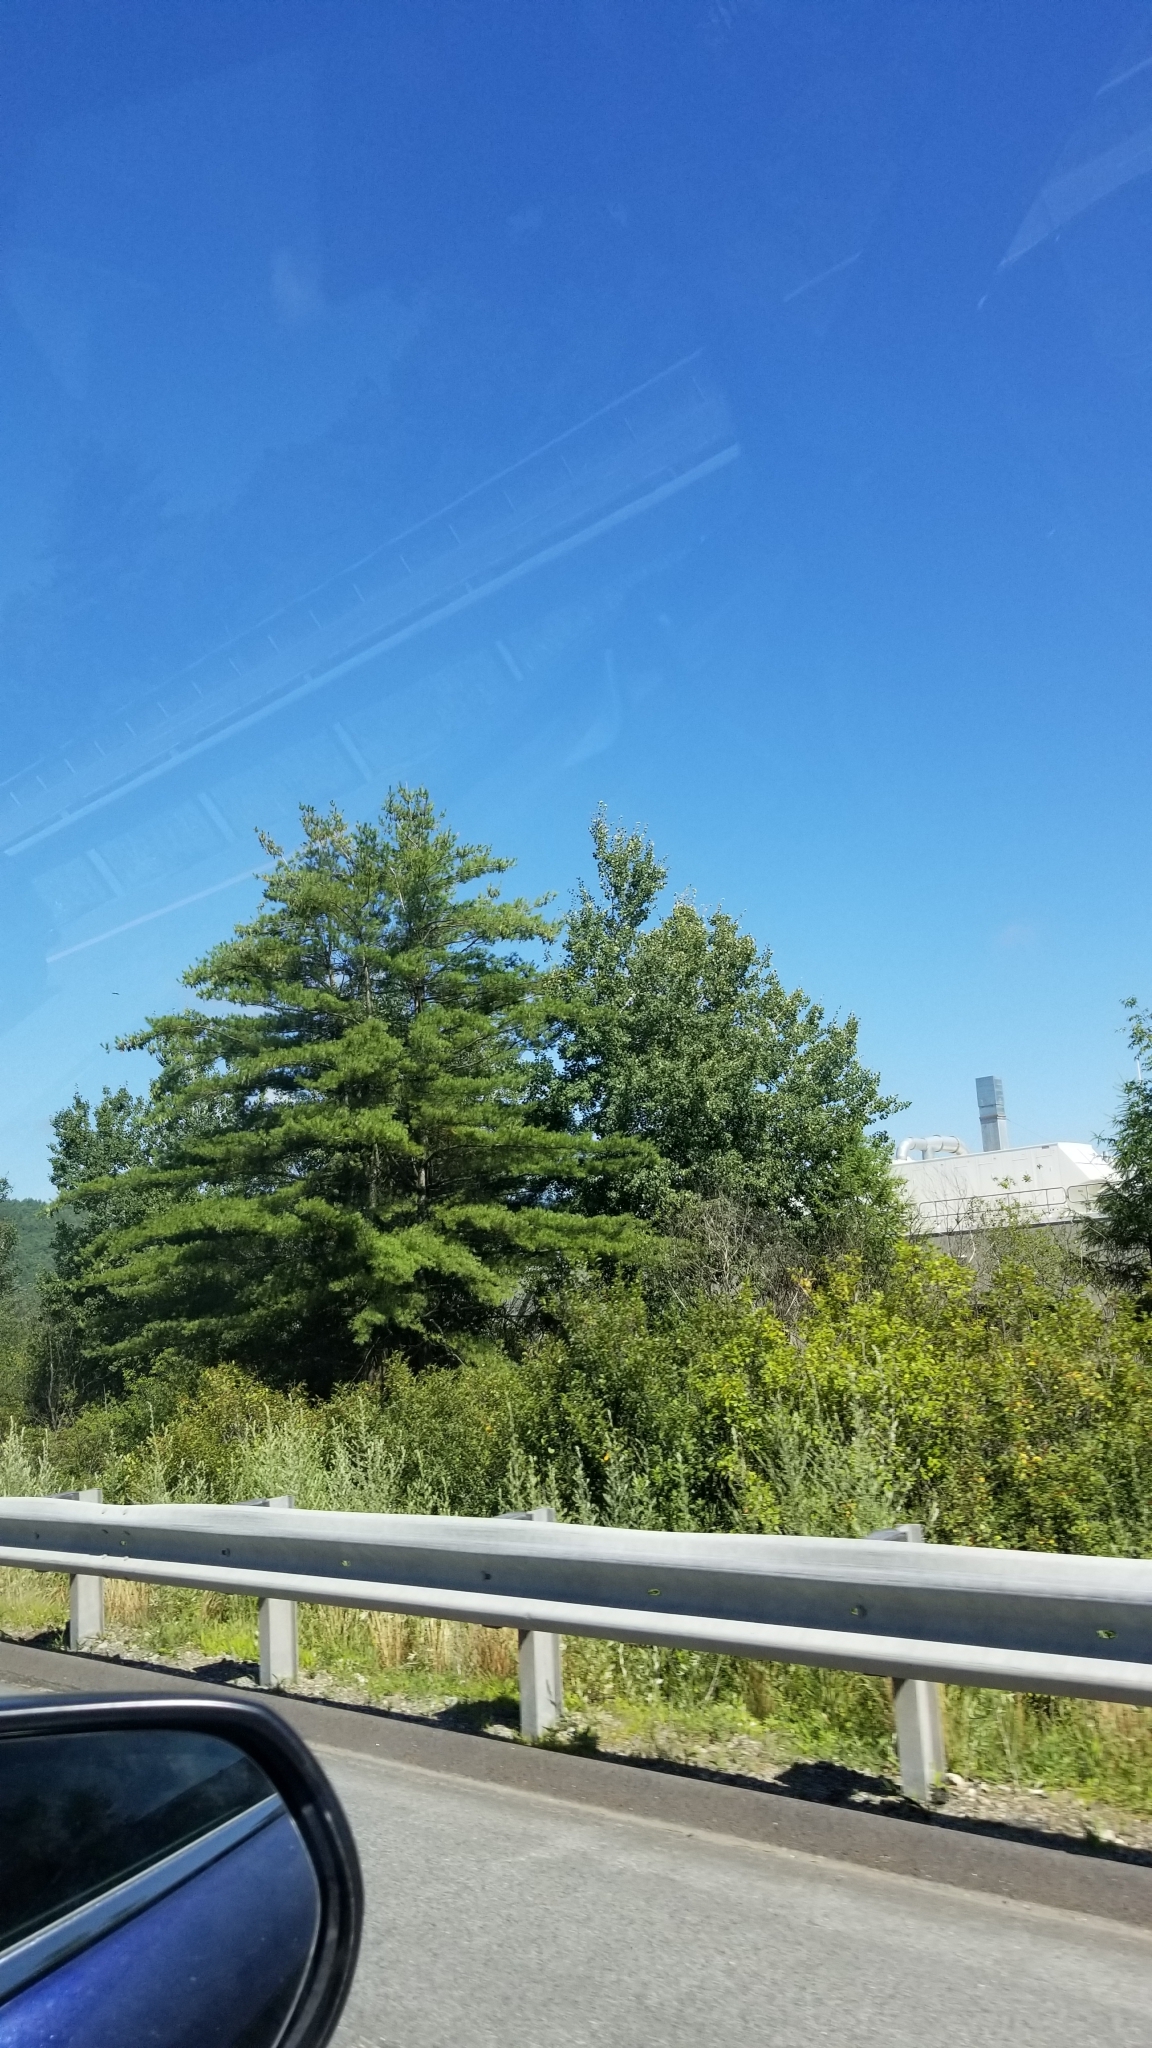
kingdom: Plantae
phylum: Tracheophyta
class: Pinopsida
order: Pinales
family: Pinaceae
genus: Pinus
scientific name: Pinus strobus
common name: Weymouth pine
